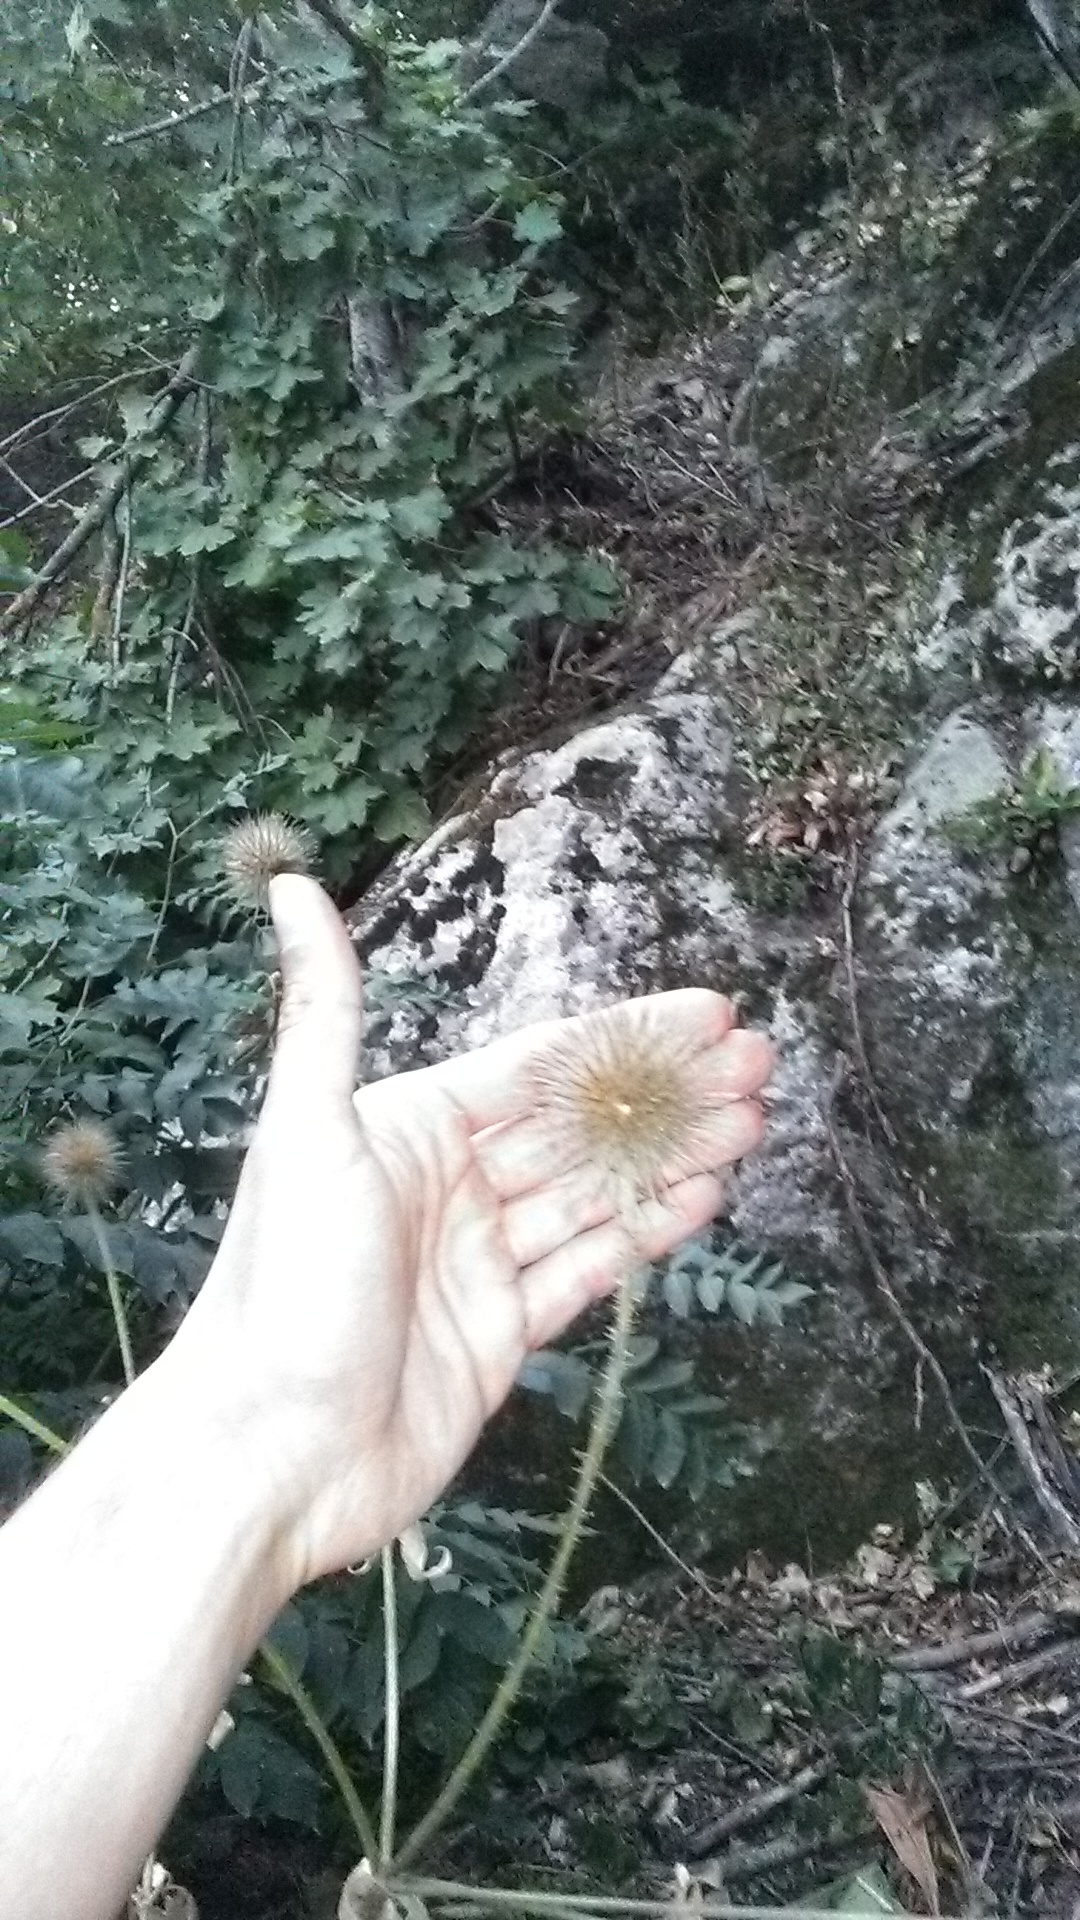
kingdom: Plantae
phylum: Tracheophyta
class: Magnoliopsida
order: Dipsacales
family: Caprifoliaceae
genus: Dipsacus
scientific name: Dipsacus strigosus
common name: Yellow-flowered teasel
